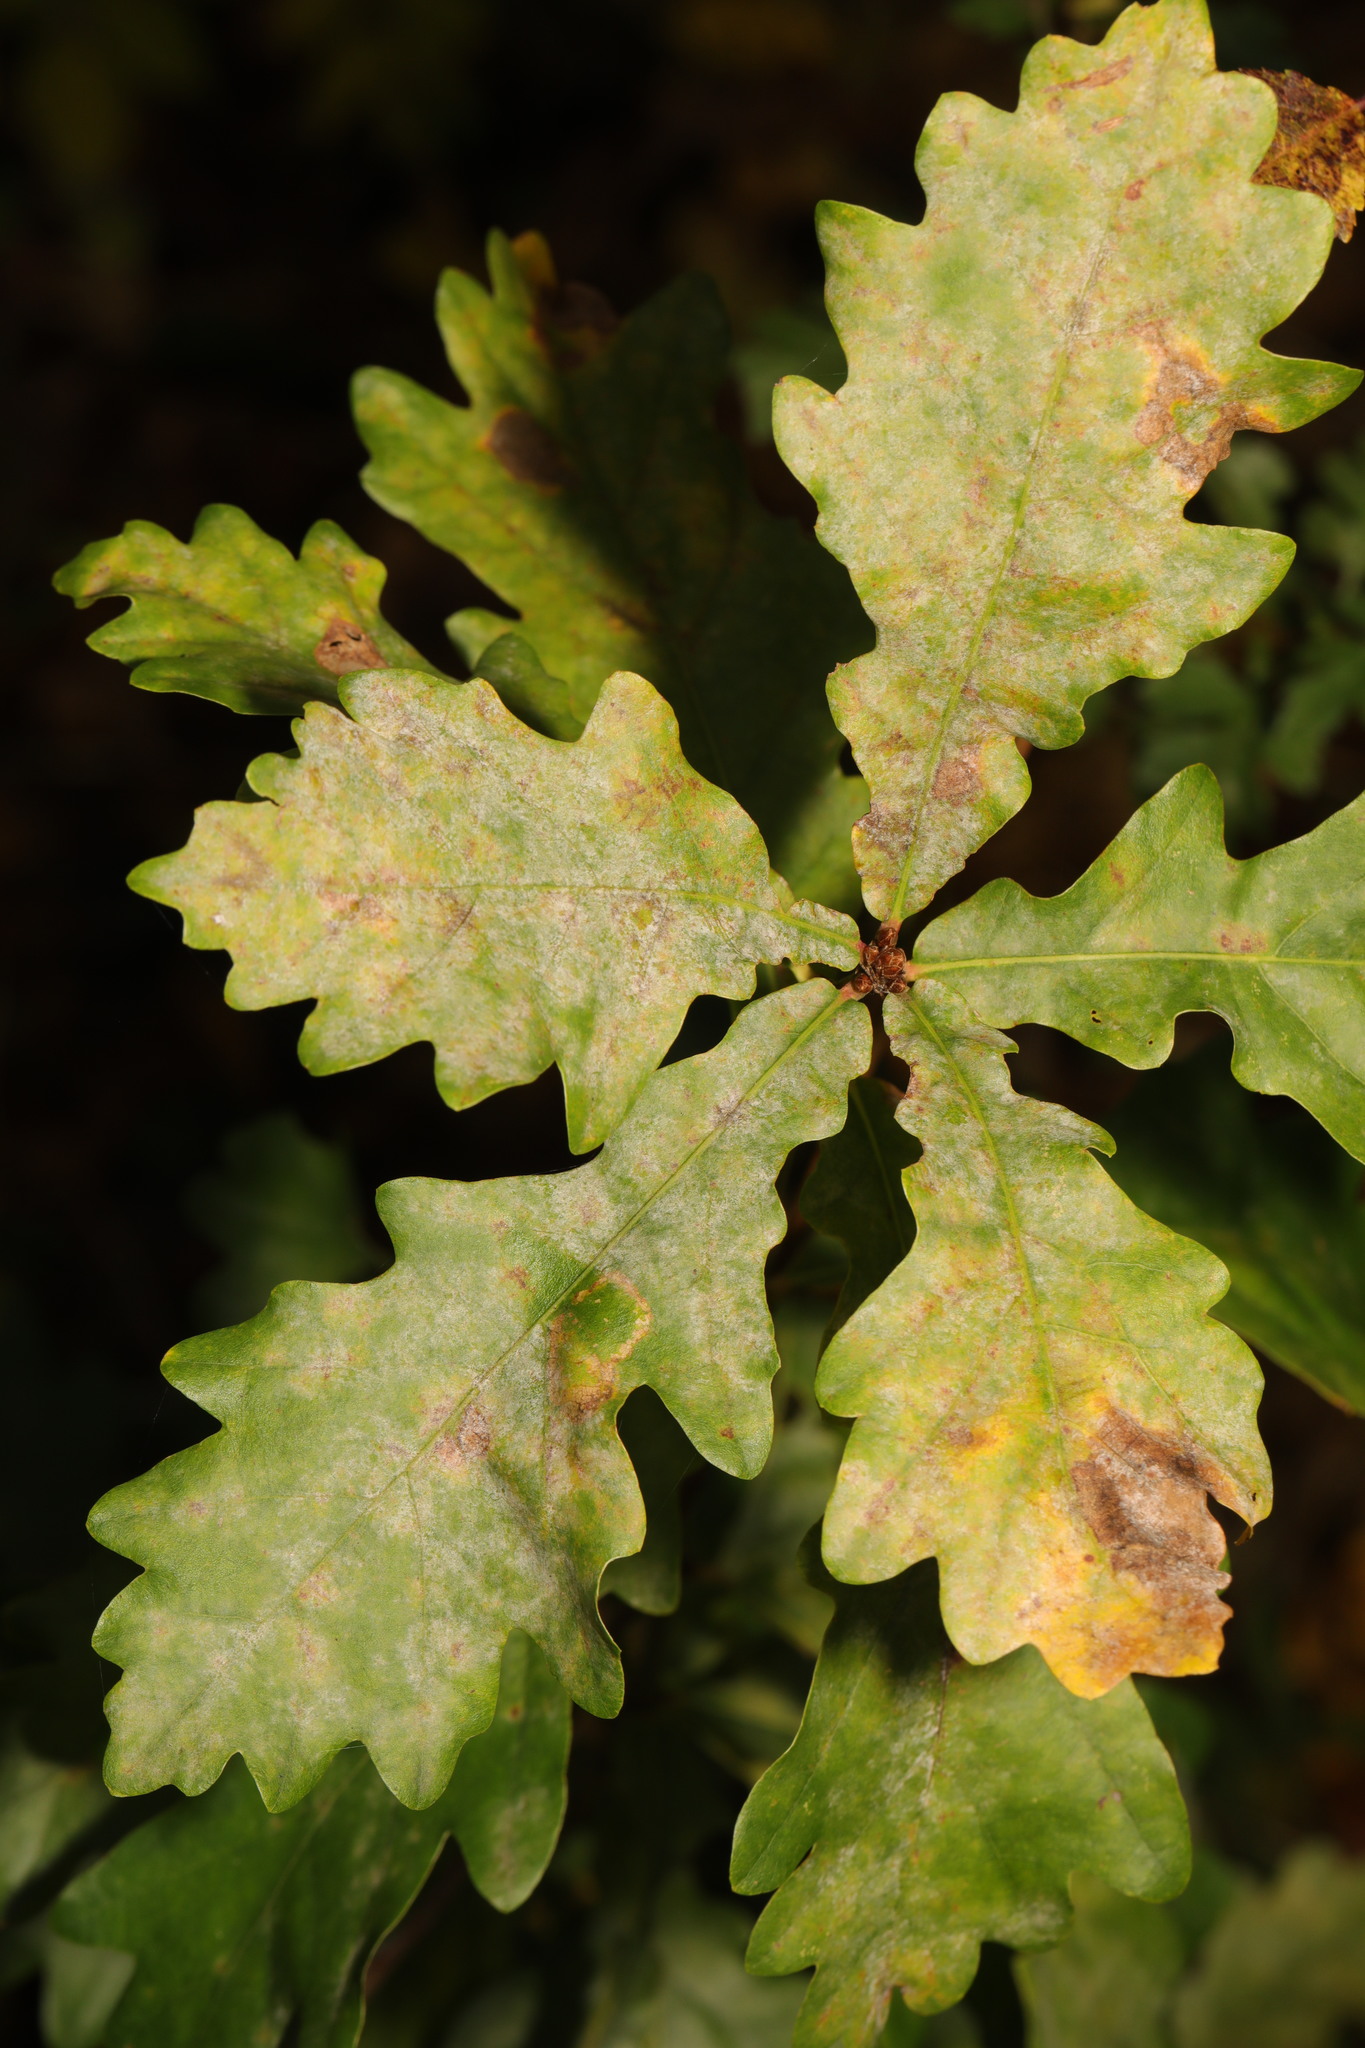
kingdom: Fungi
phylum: Ascomycota
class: Leotiomycetes
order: Helotiales
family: Erysiphaceae
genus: Erysiphe
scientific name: Erysiphe alphitoides
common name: Oak mildew
